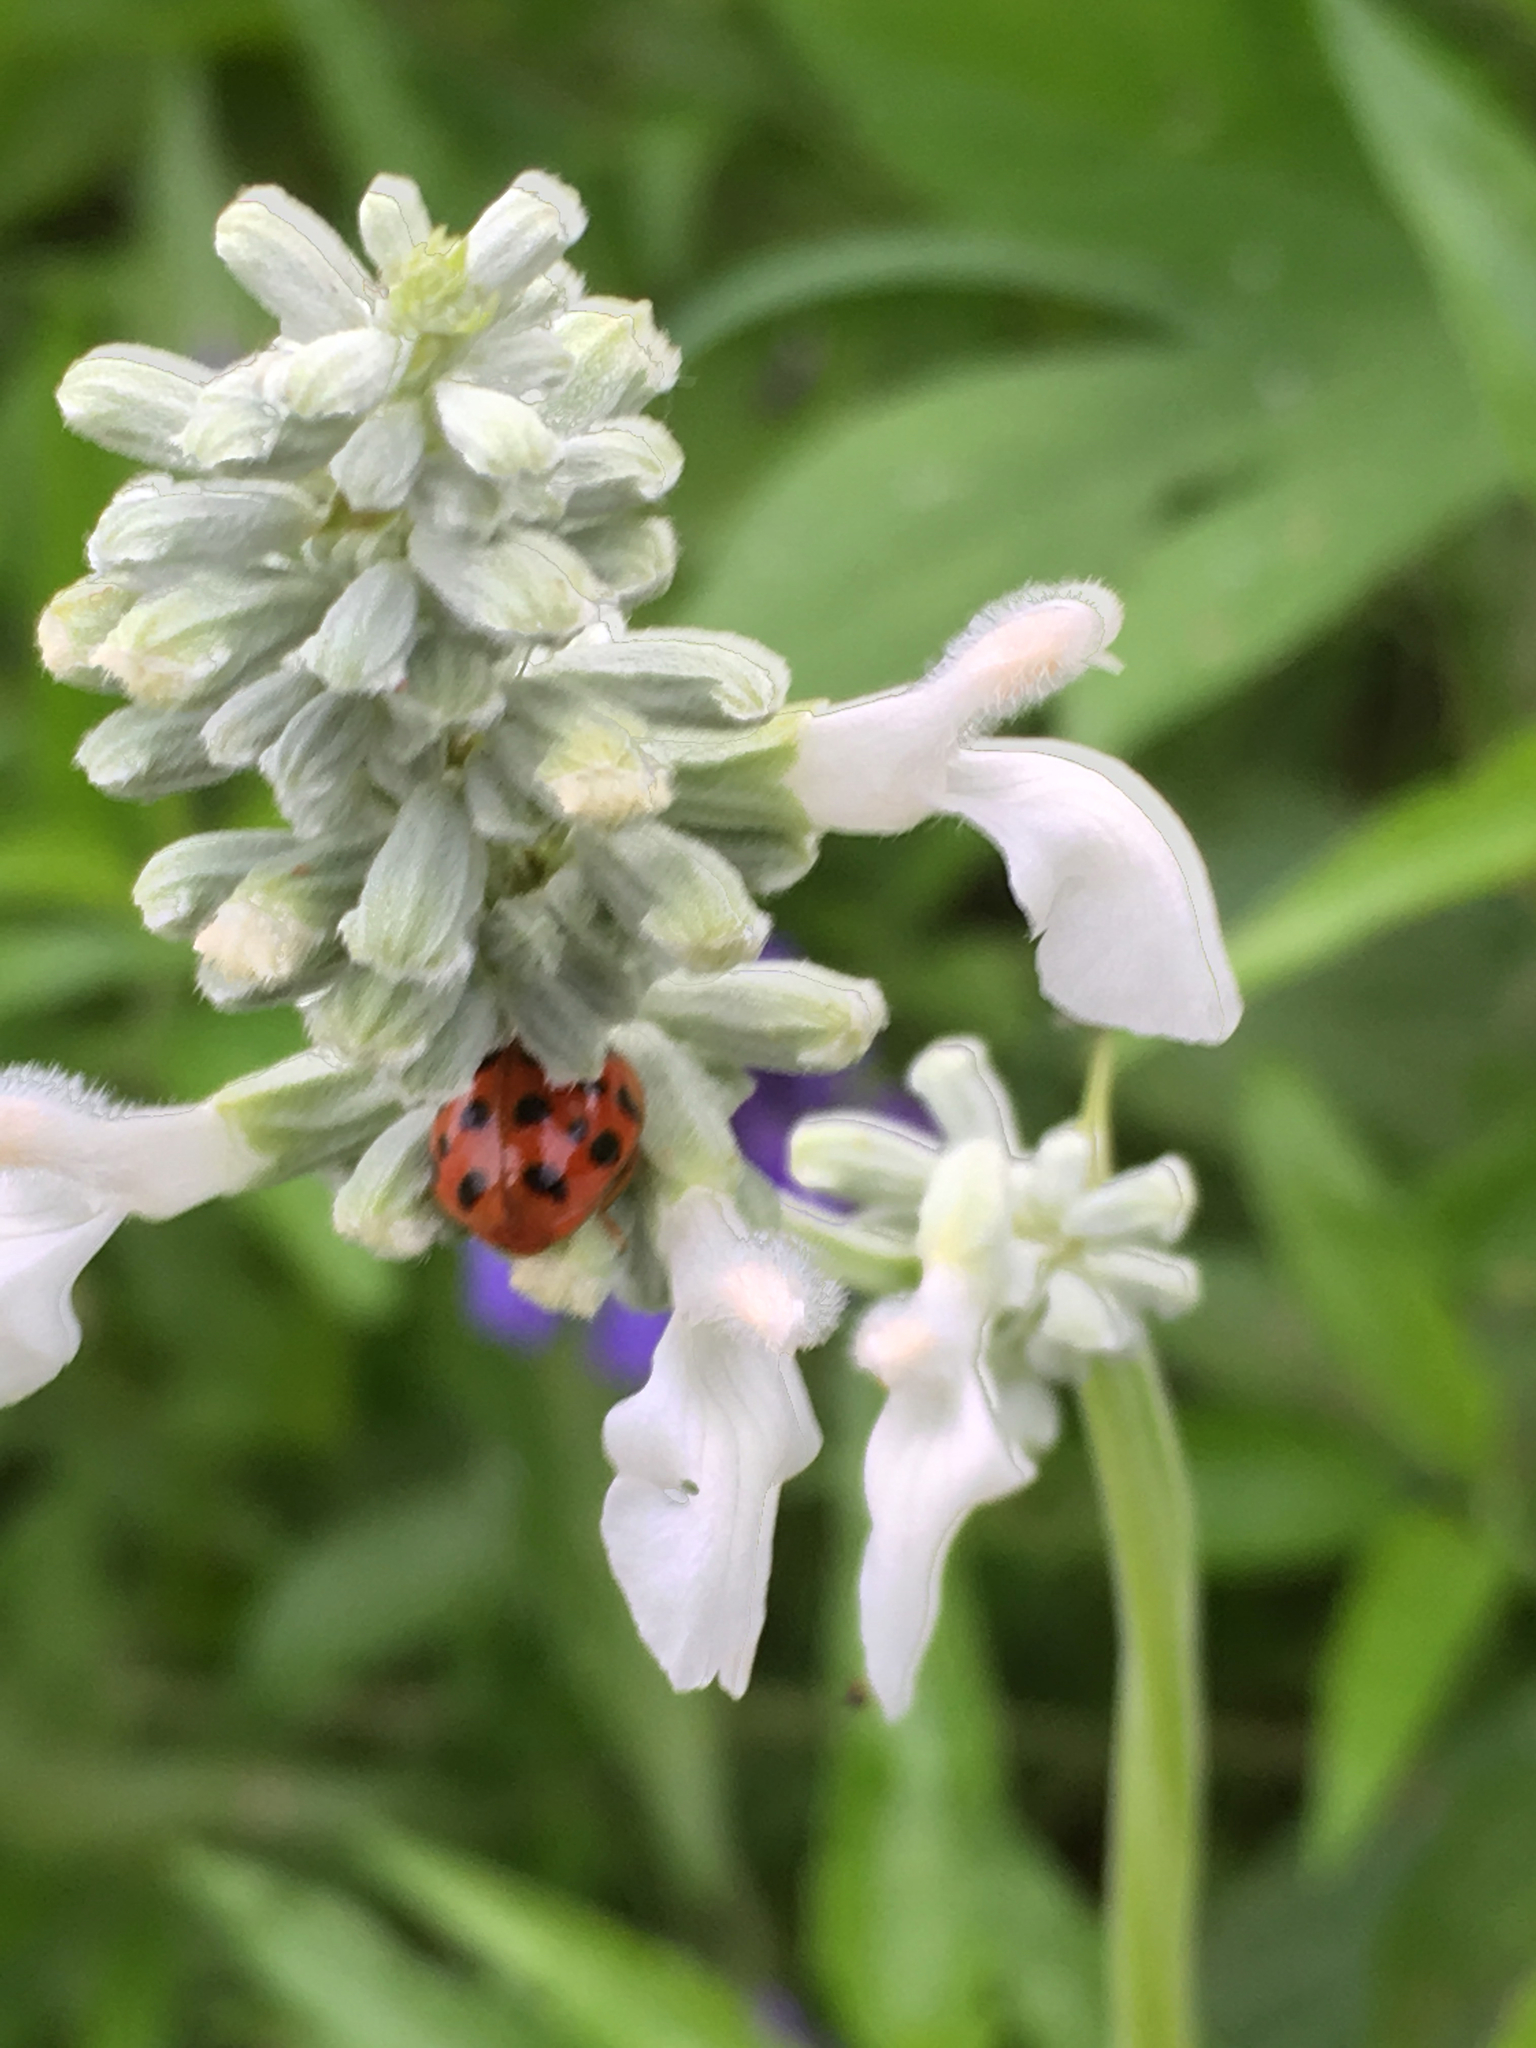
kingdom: Animalia
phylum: Arthropoda
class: Insecta
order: Coleoptera
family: Coccinellidae
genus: Harmonia
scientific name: Harmonia axyridis
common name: Harlequin ladybird
